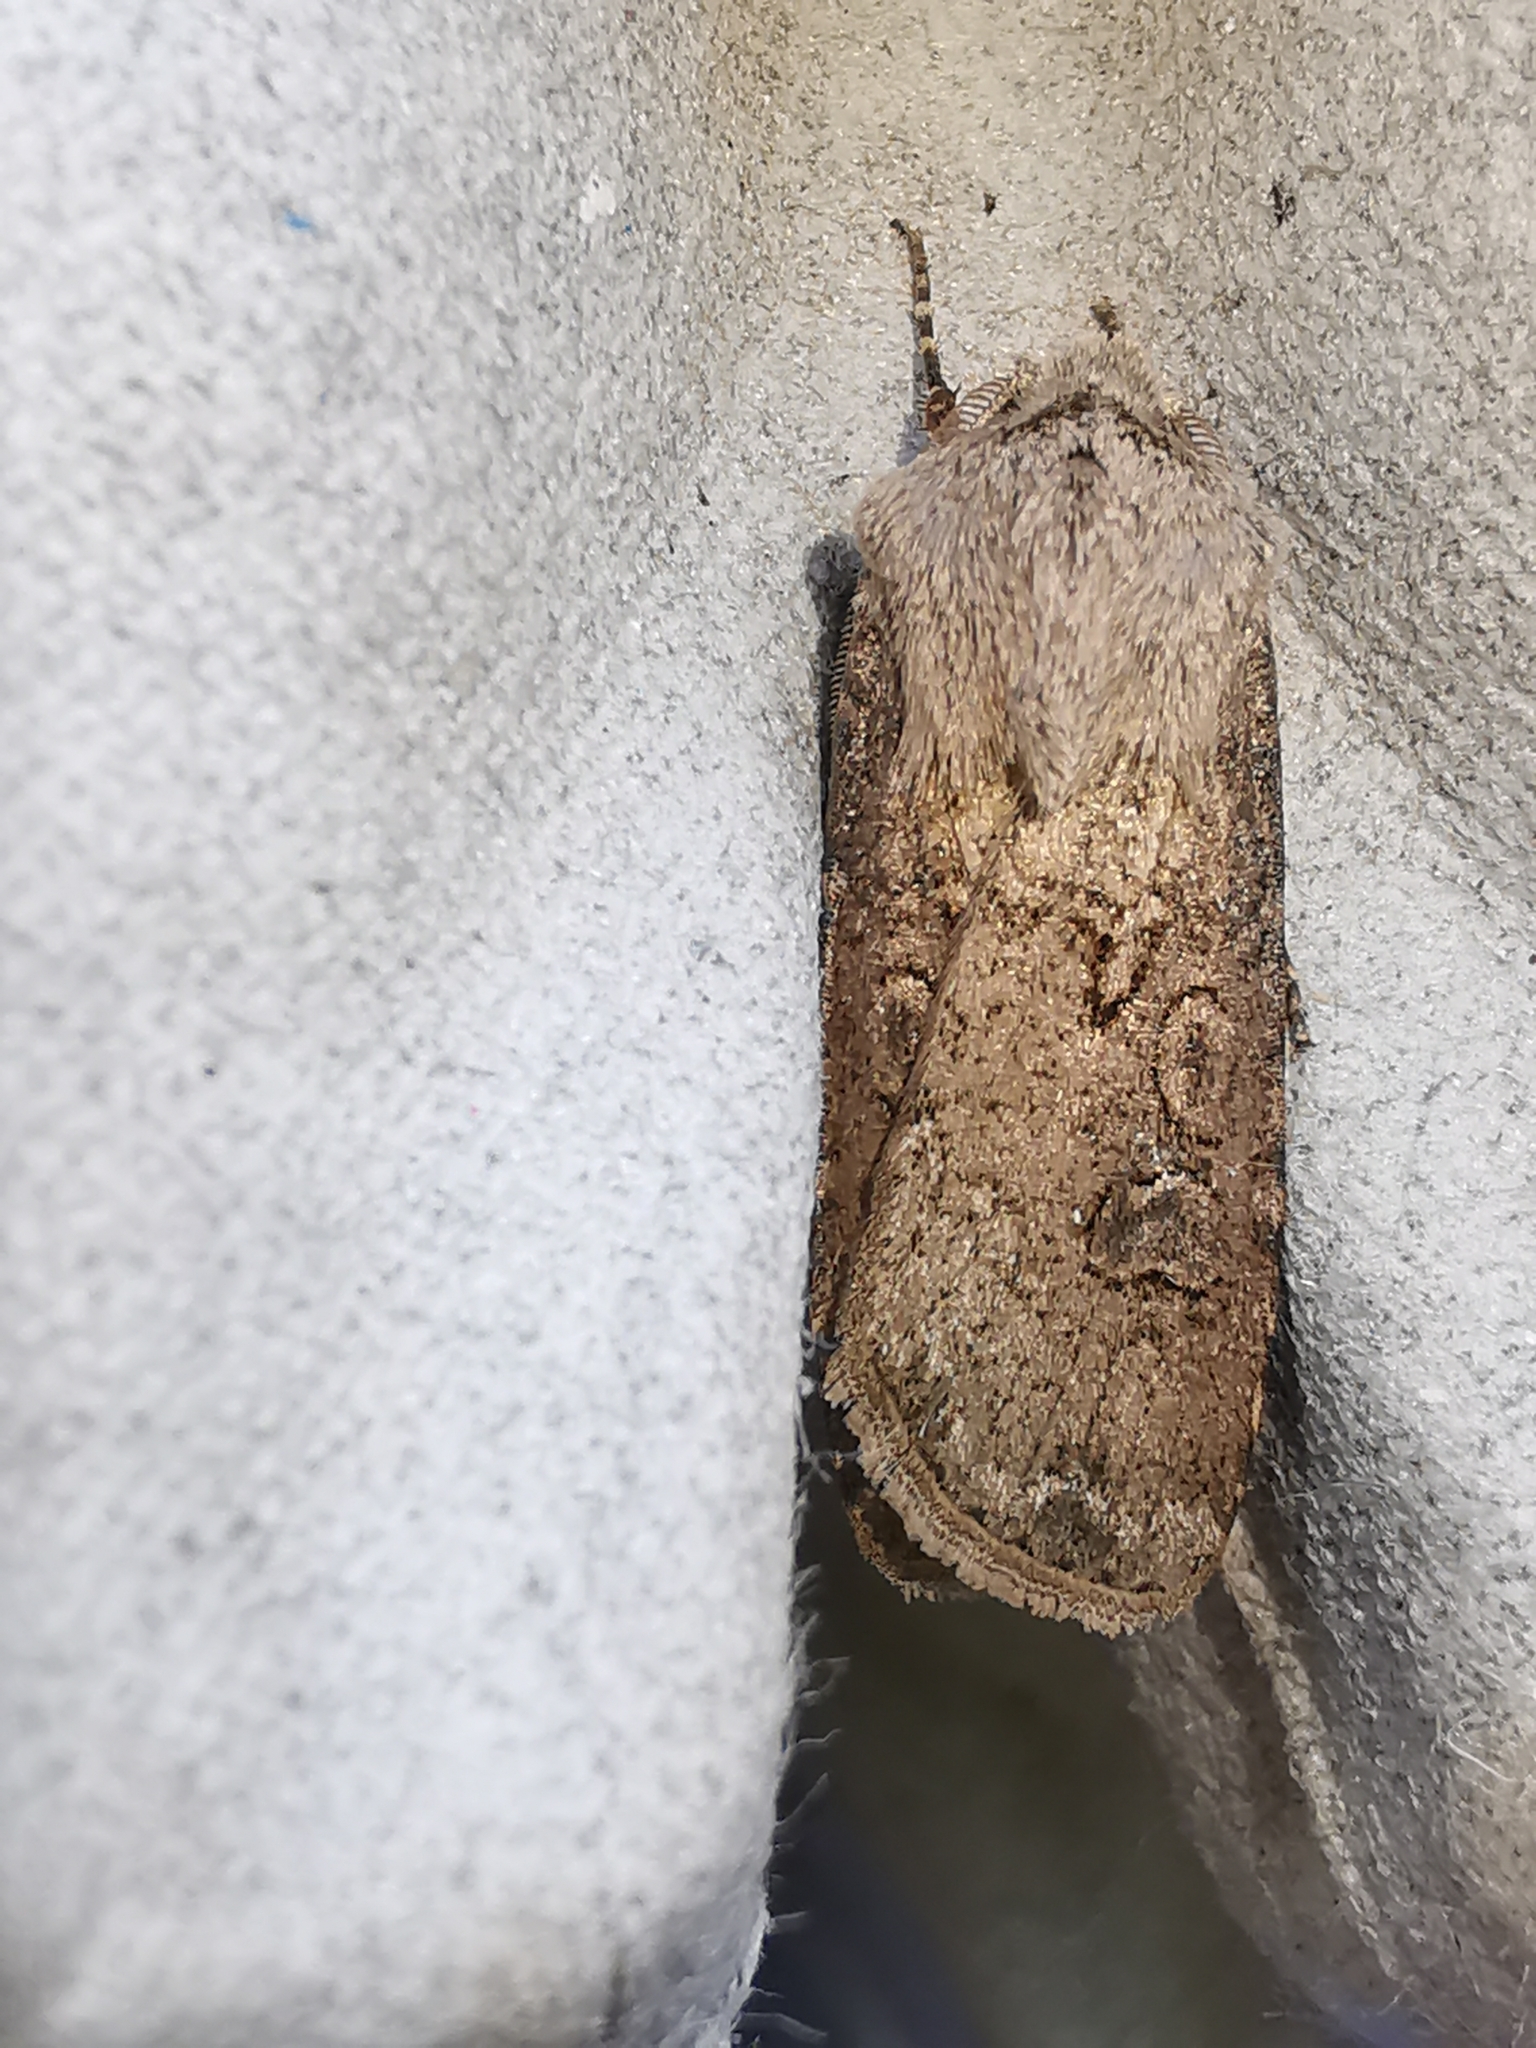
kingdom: Animalia
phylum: Arthropoda
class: Insecta
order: Lepidoptera
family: Noctuidae
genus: Agrotis
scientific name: Agrotis segetum
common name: Turnip moth
